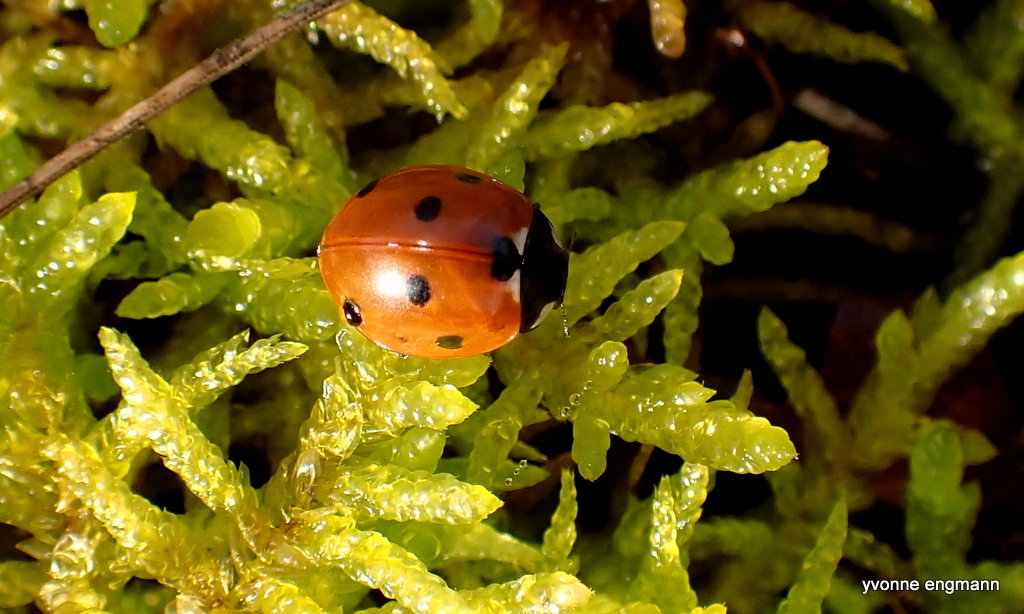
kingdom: Animalia
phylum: Arthropoda
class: Insecta
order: Coleoptera
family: Coccinellidae
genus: Coccinella
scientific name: Coccinella septempunctata
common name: Sevenspotted lady beetle
